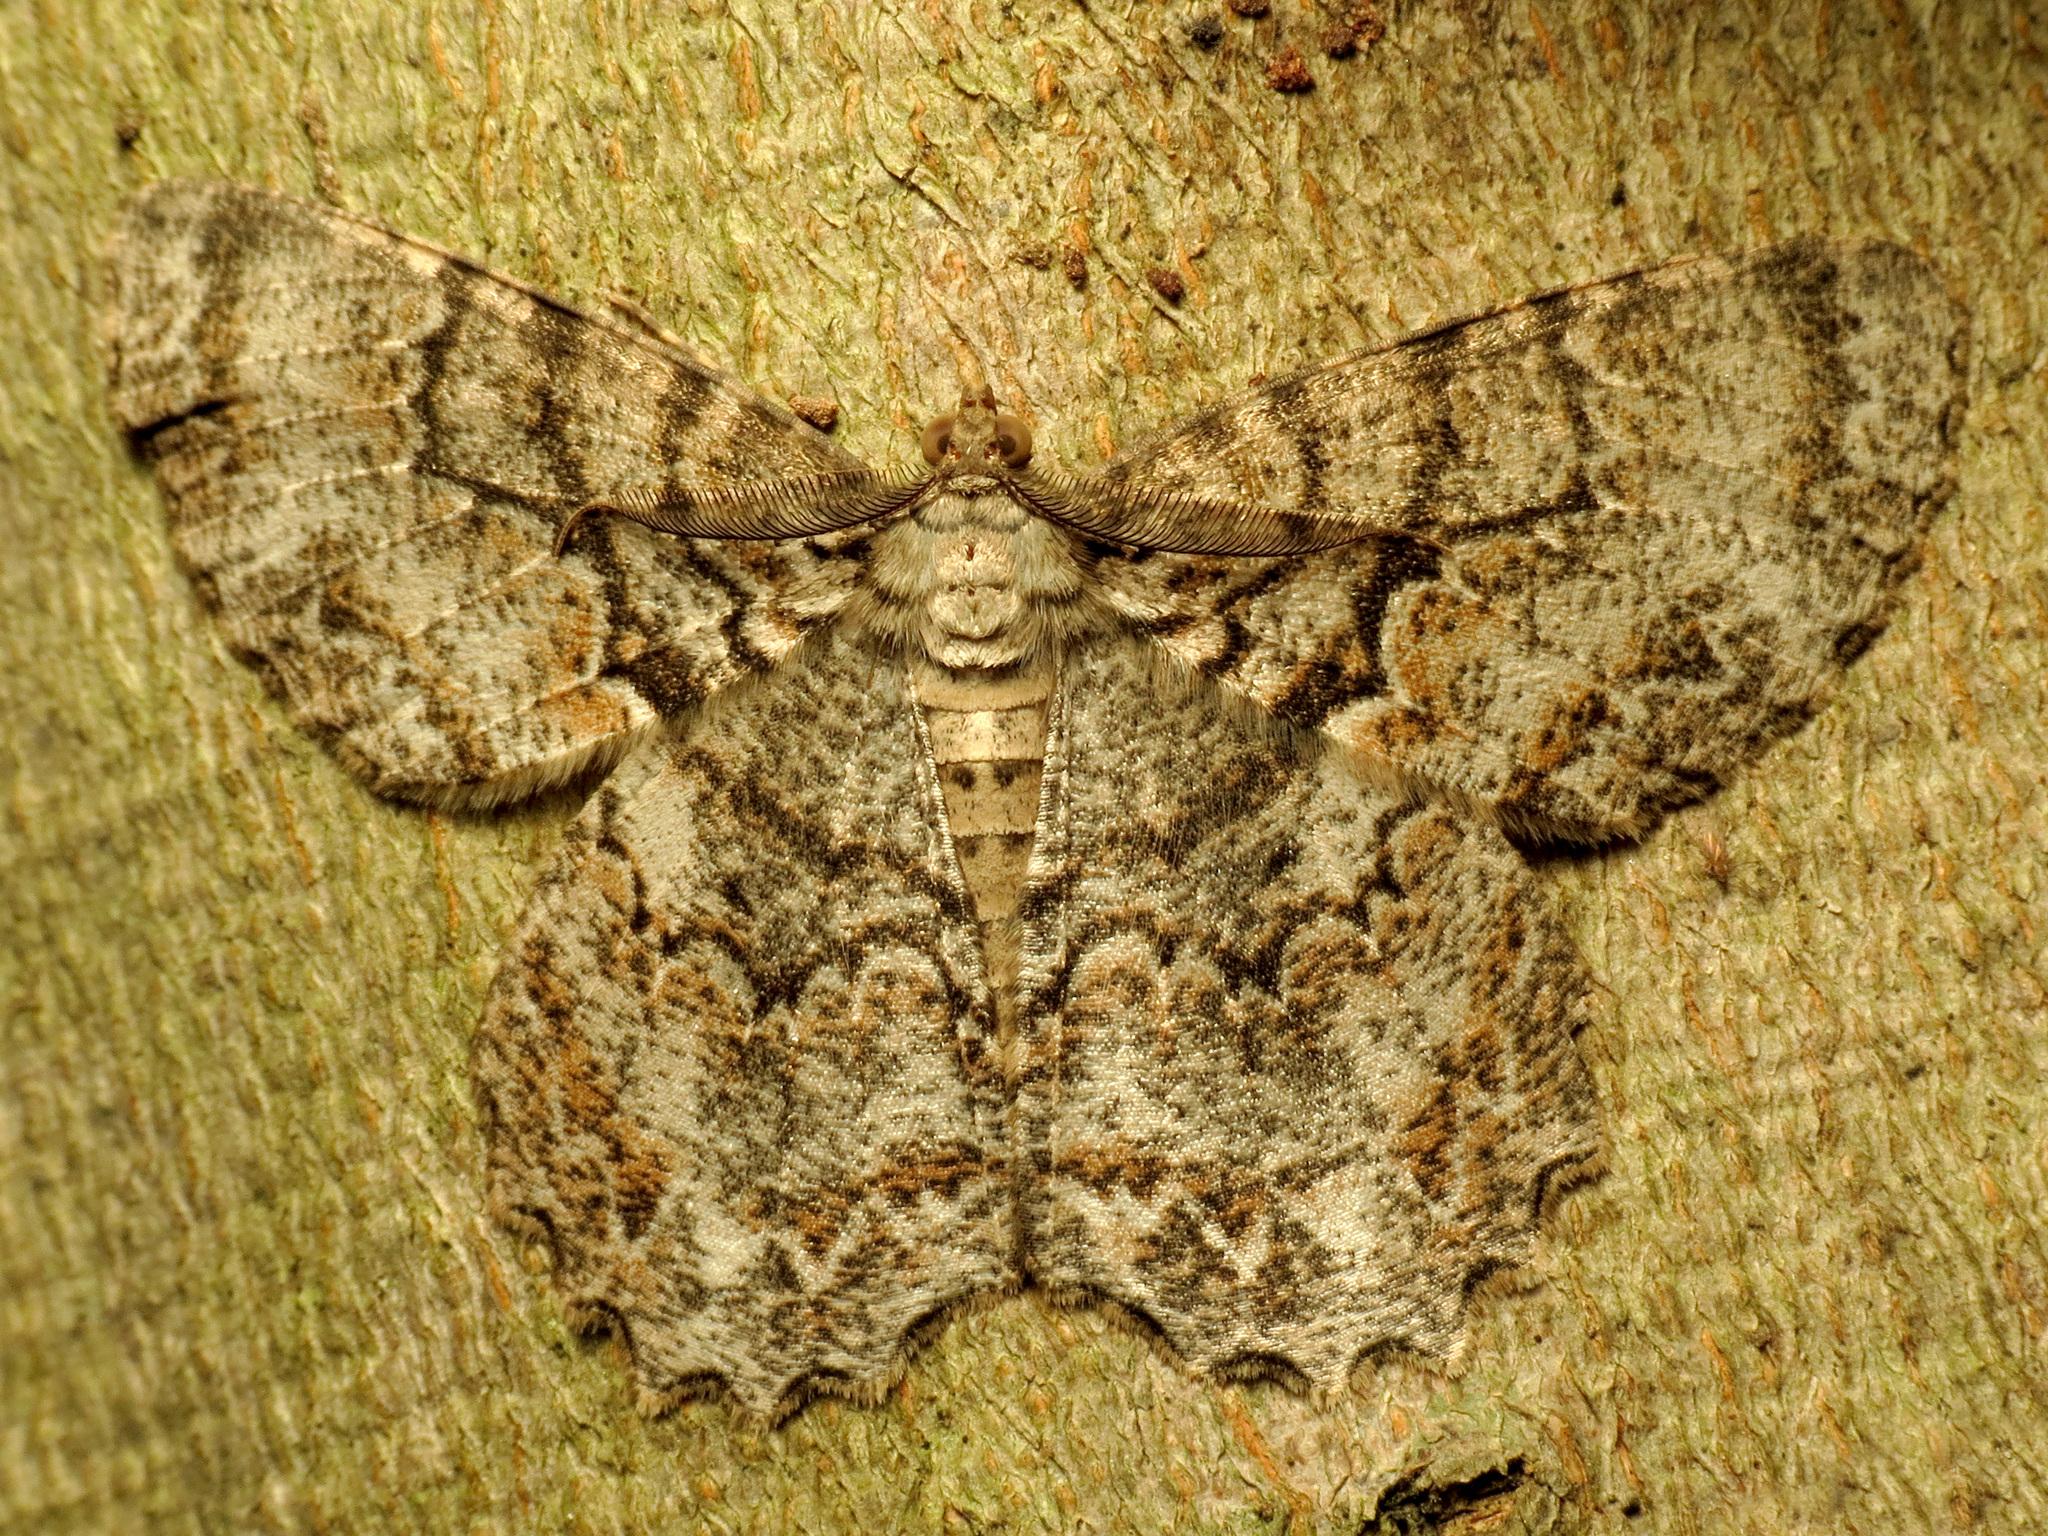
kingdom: Animalia
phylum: Arthropoda
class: Insecta
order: Lepidoptera
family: Geometridae
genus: Epimecis
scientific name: Epimecis hortaria
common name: Tulip-tree beauty
